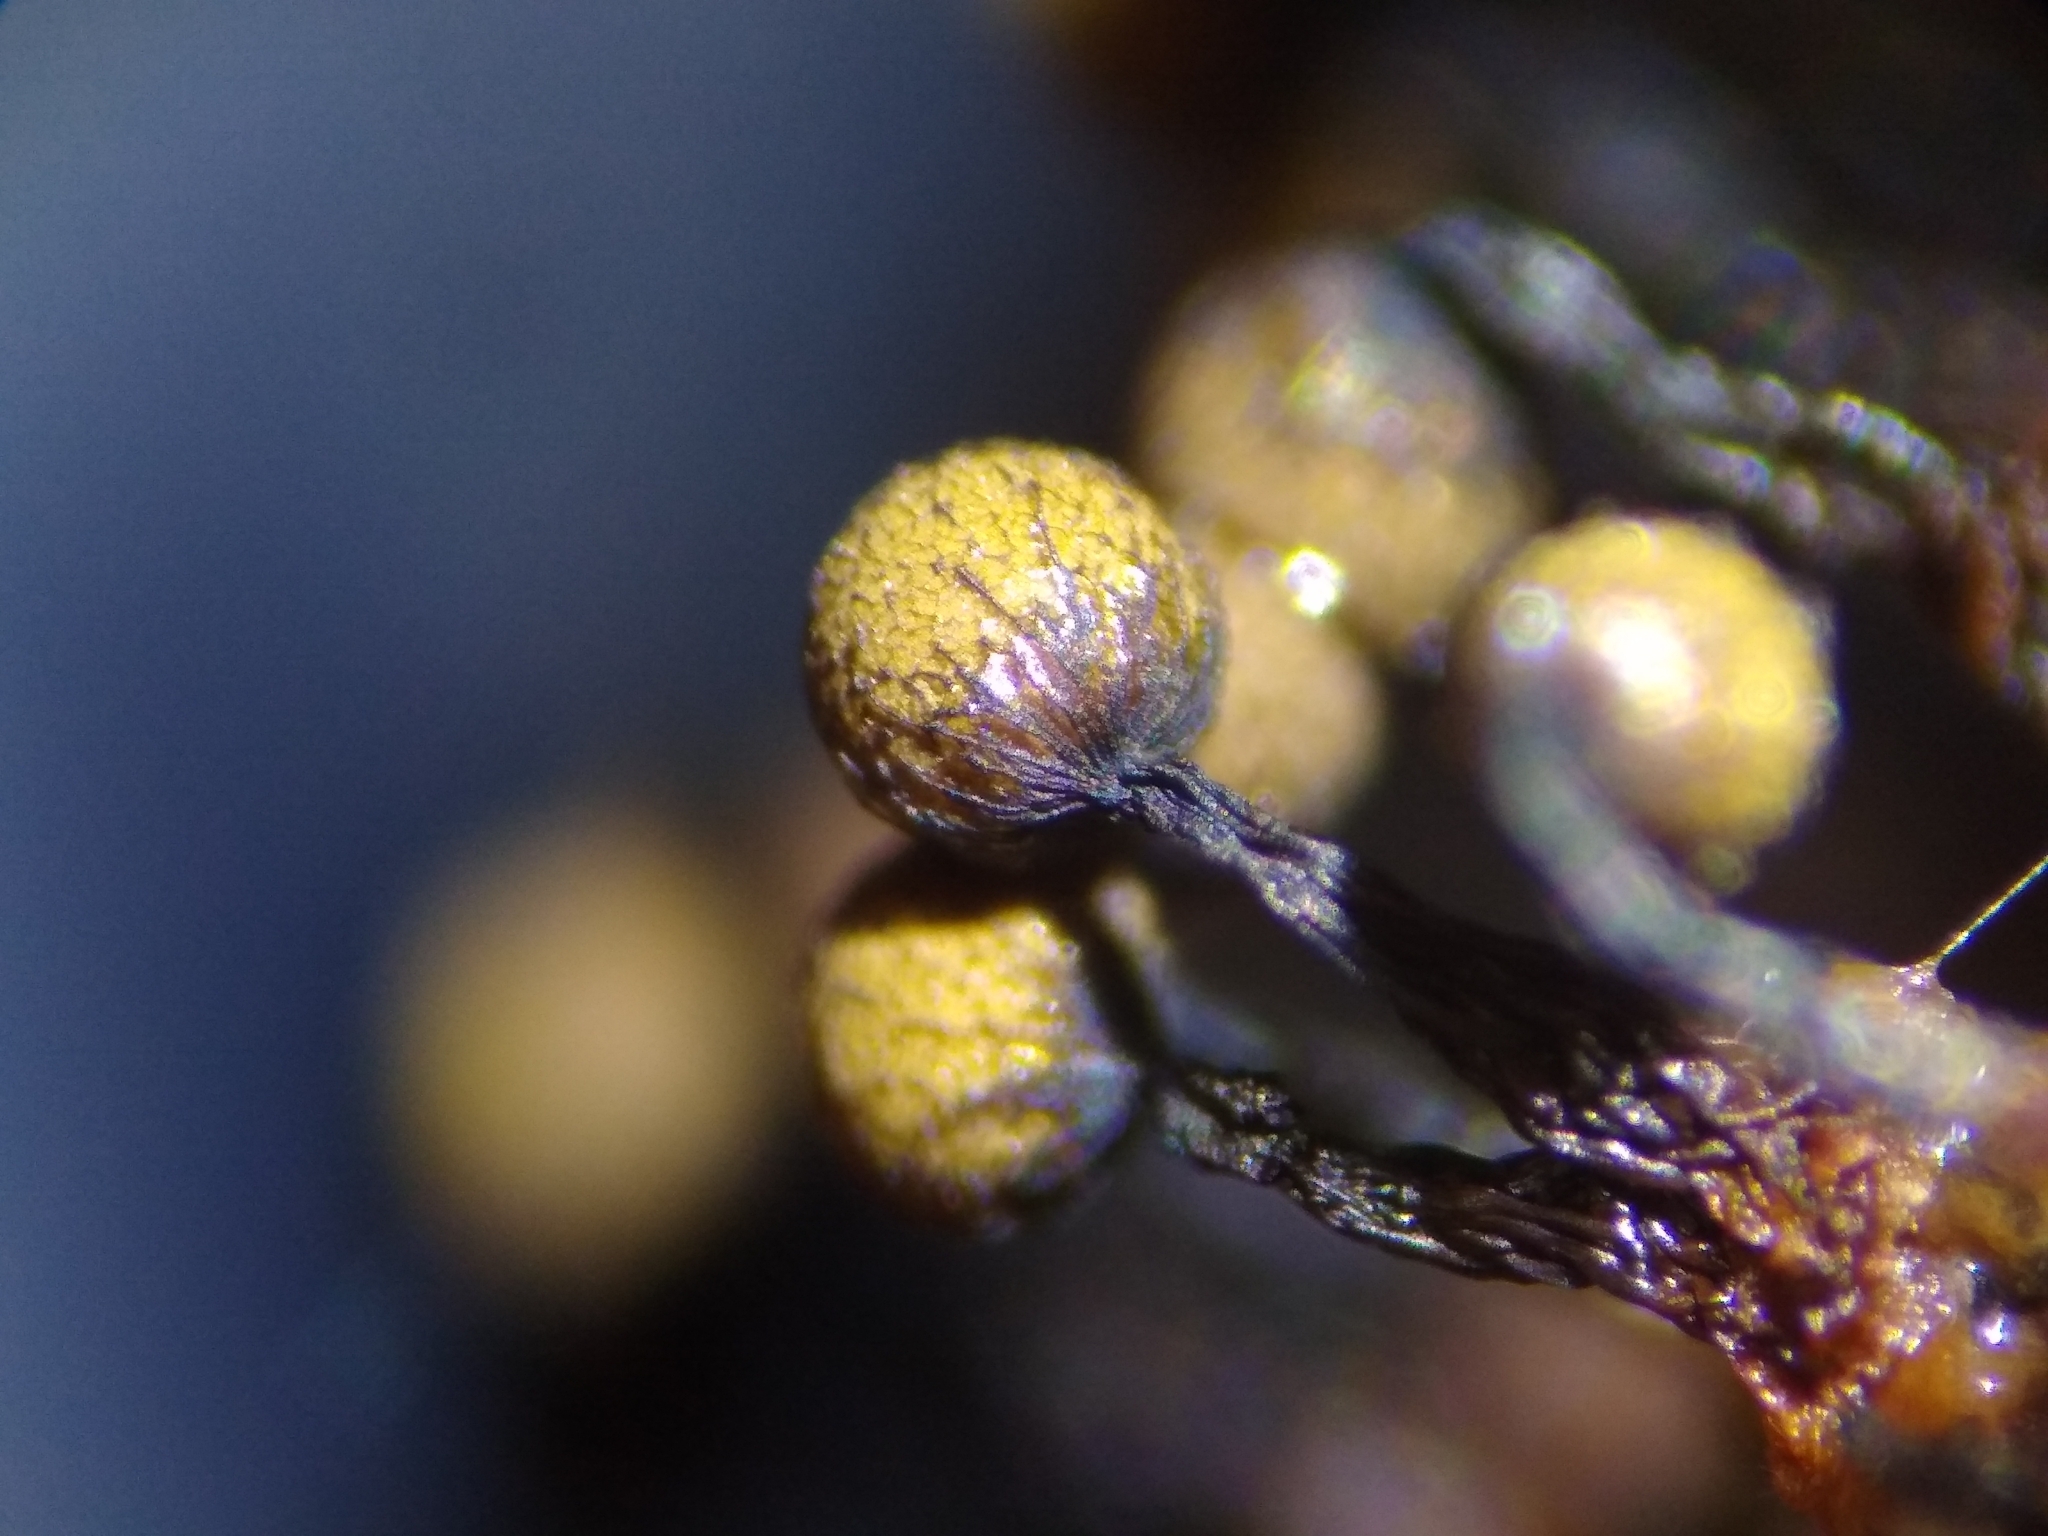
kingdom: Protozoa
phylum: Mycetozoa
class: Myxomycetes
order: Cribrariales
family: Cribrariaceae
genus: Cribraria
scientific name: Cribraria macrocarpa
